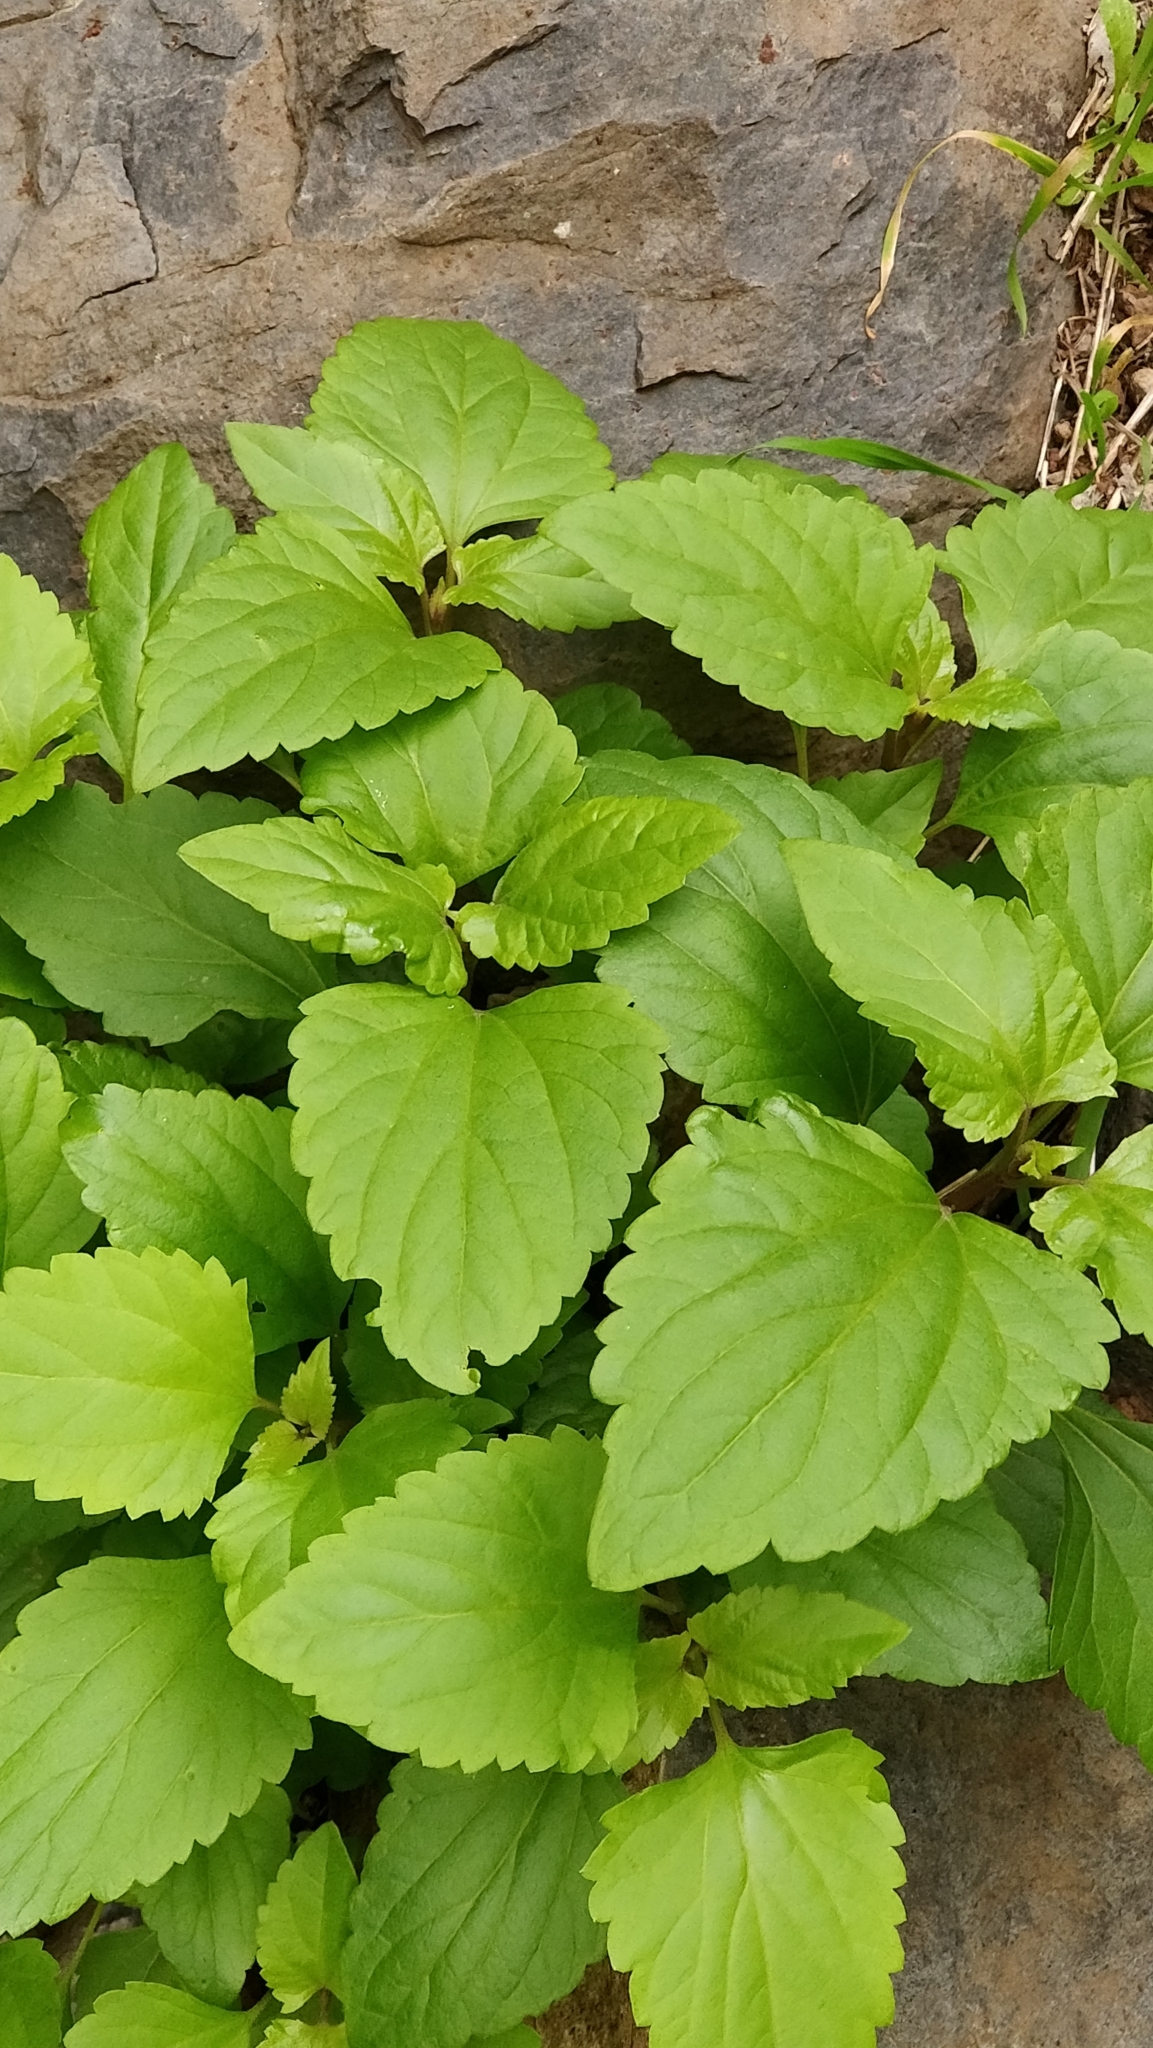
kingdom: Plantae
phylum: Tracheophyta
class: Magnoliopsida
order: Asterales
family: Asteraceae
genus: Ageratina
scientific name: Ageratina adenophora
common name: Sticky snakeroot
